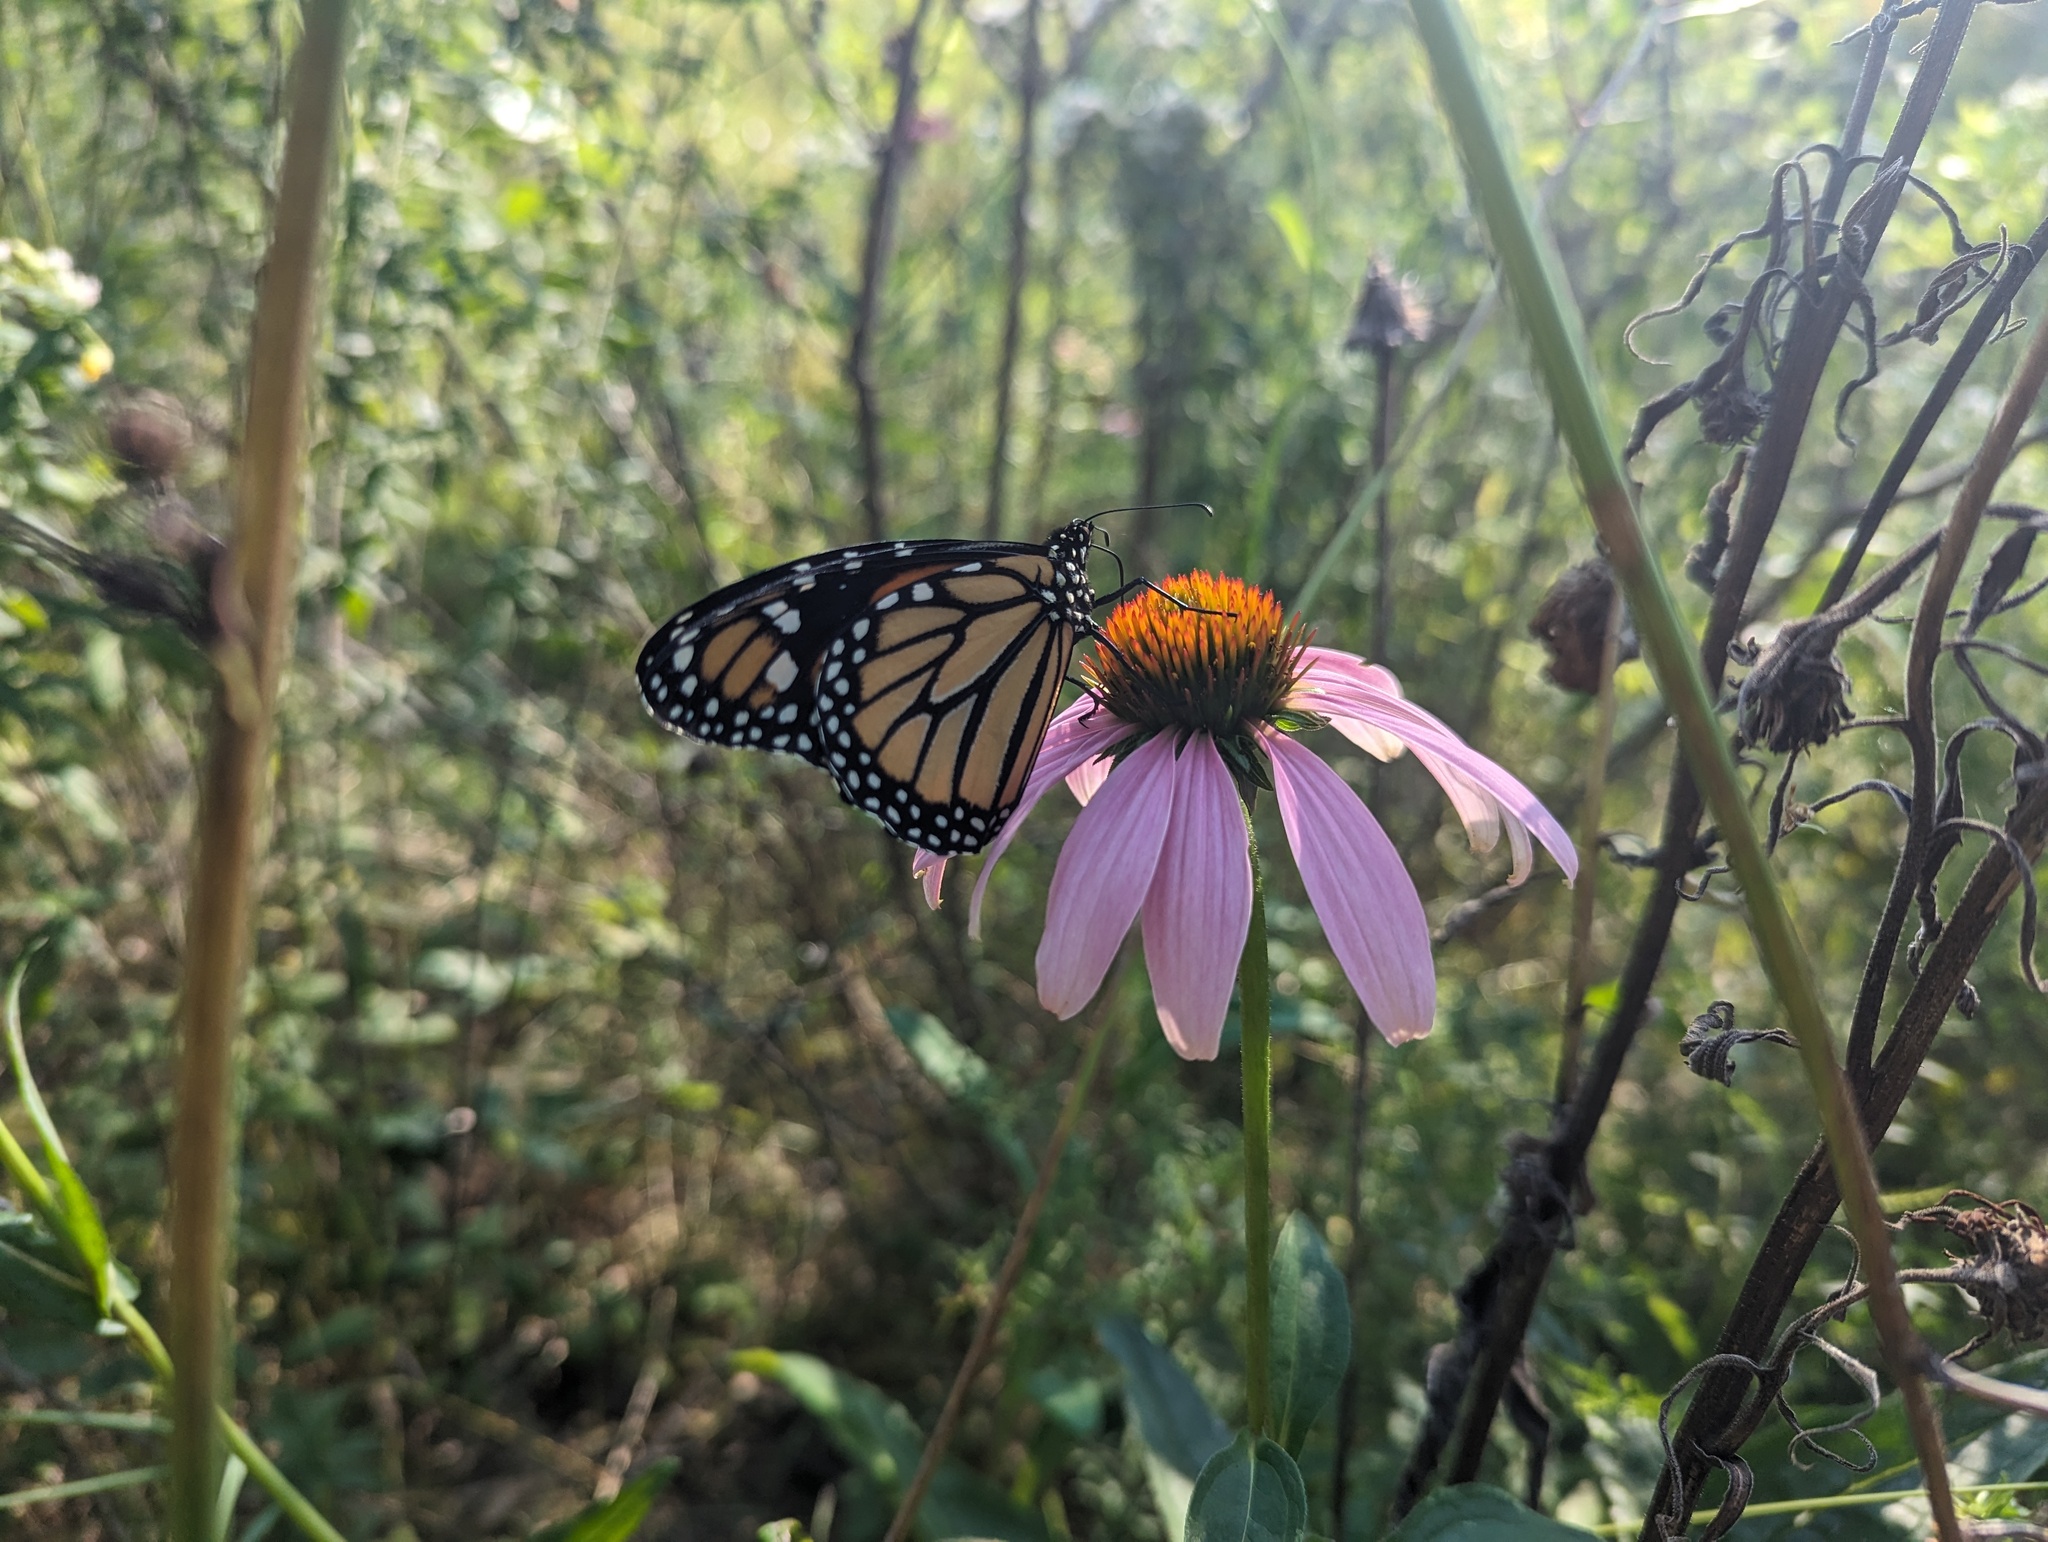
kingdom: Animalia
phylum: Arthropoda
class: Insecta
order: Lepidoptera
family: Nymphalidae
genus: Danaus
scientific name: Danaus plexippus
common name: Monarch
